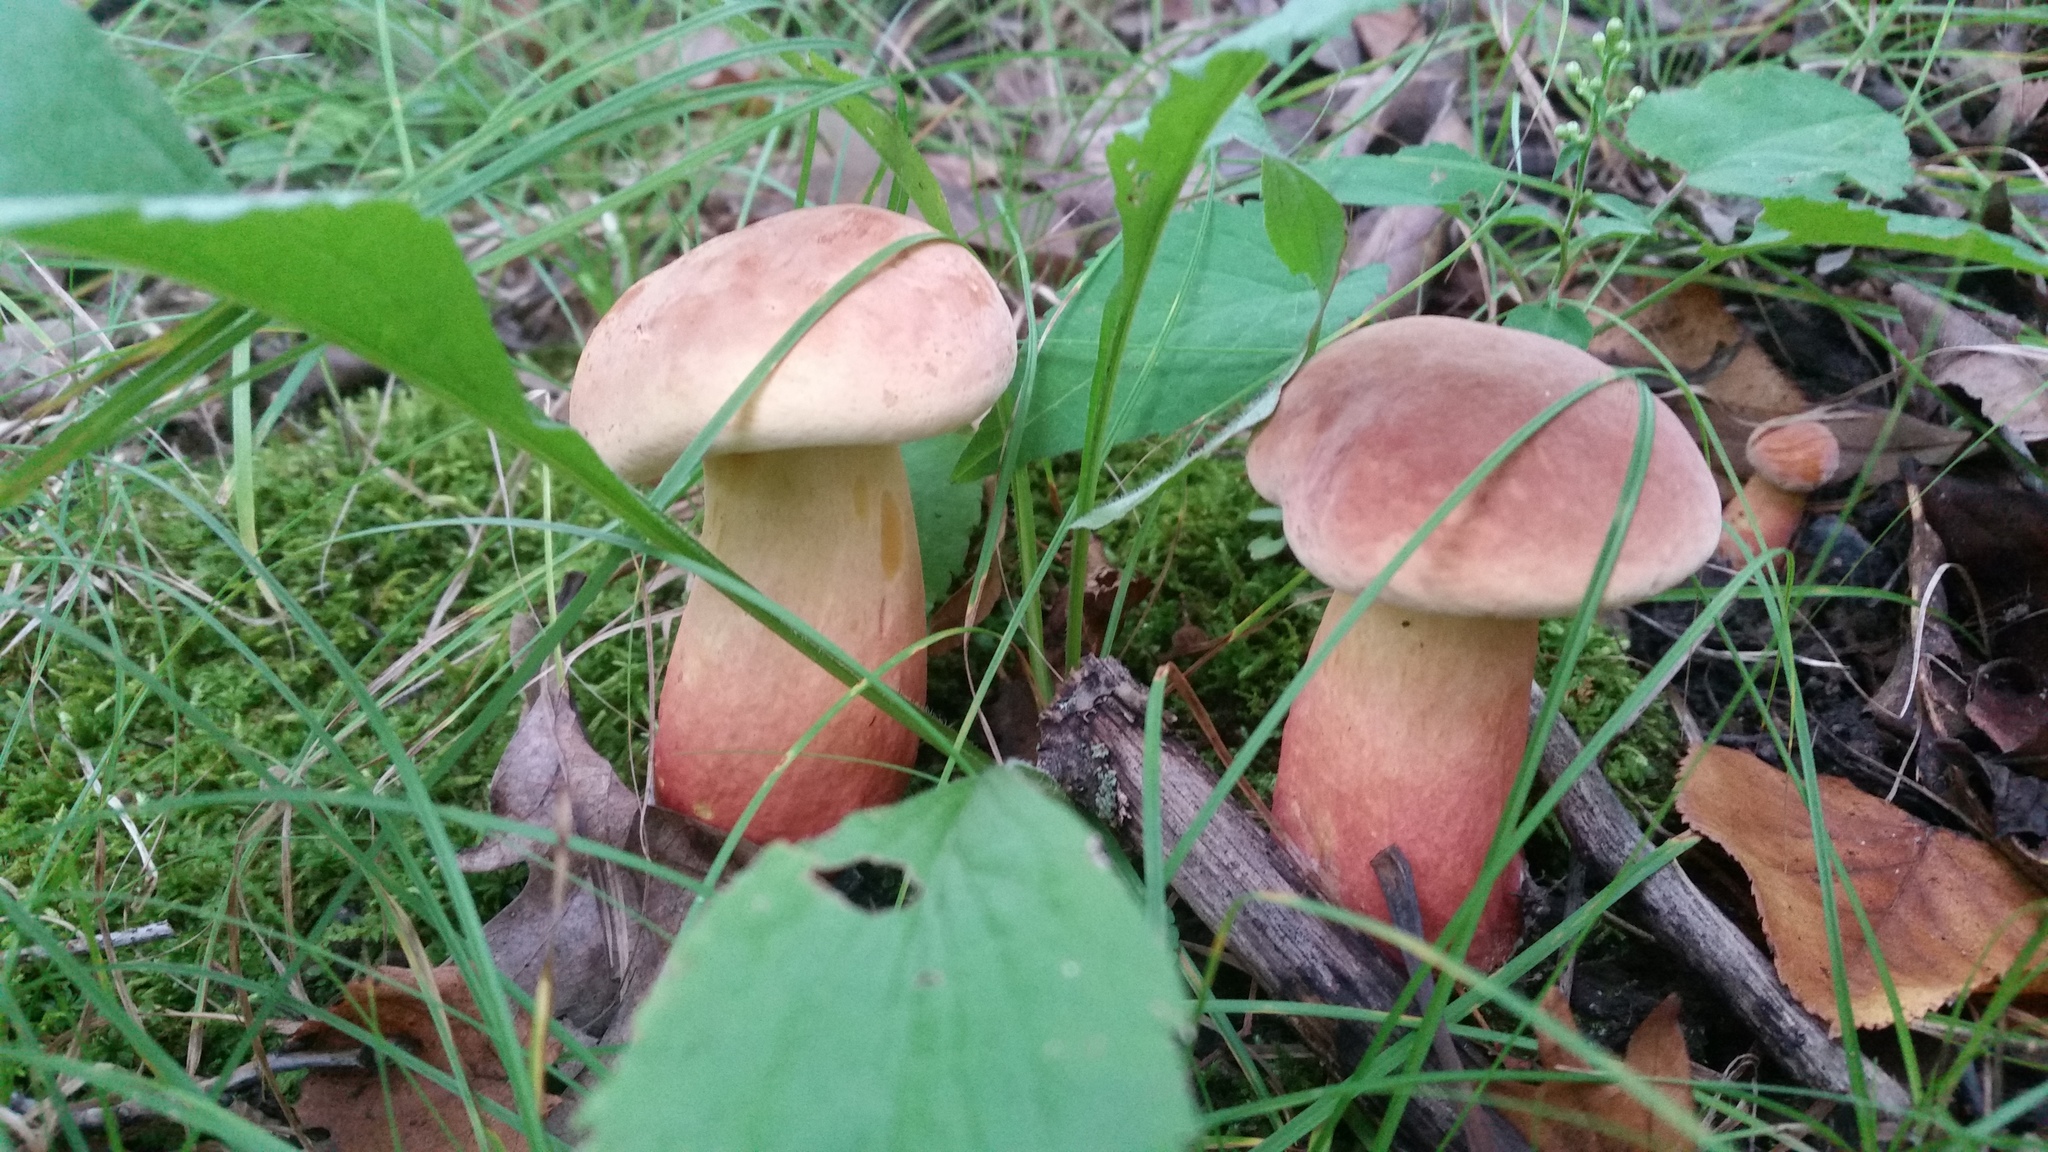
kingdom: Fungi
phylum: Basidiomycota
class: Agaricomycetes
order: Boletales
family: Boletaceae
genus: Lanmaoa
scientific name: Lanmaoa pseudosensibilis
